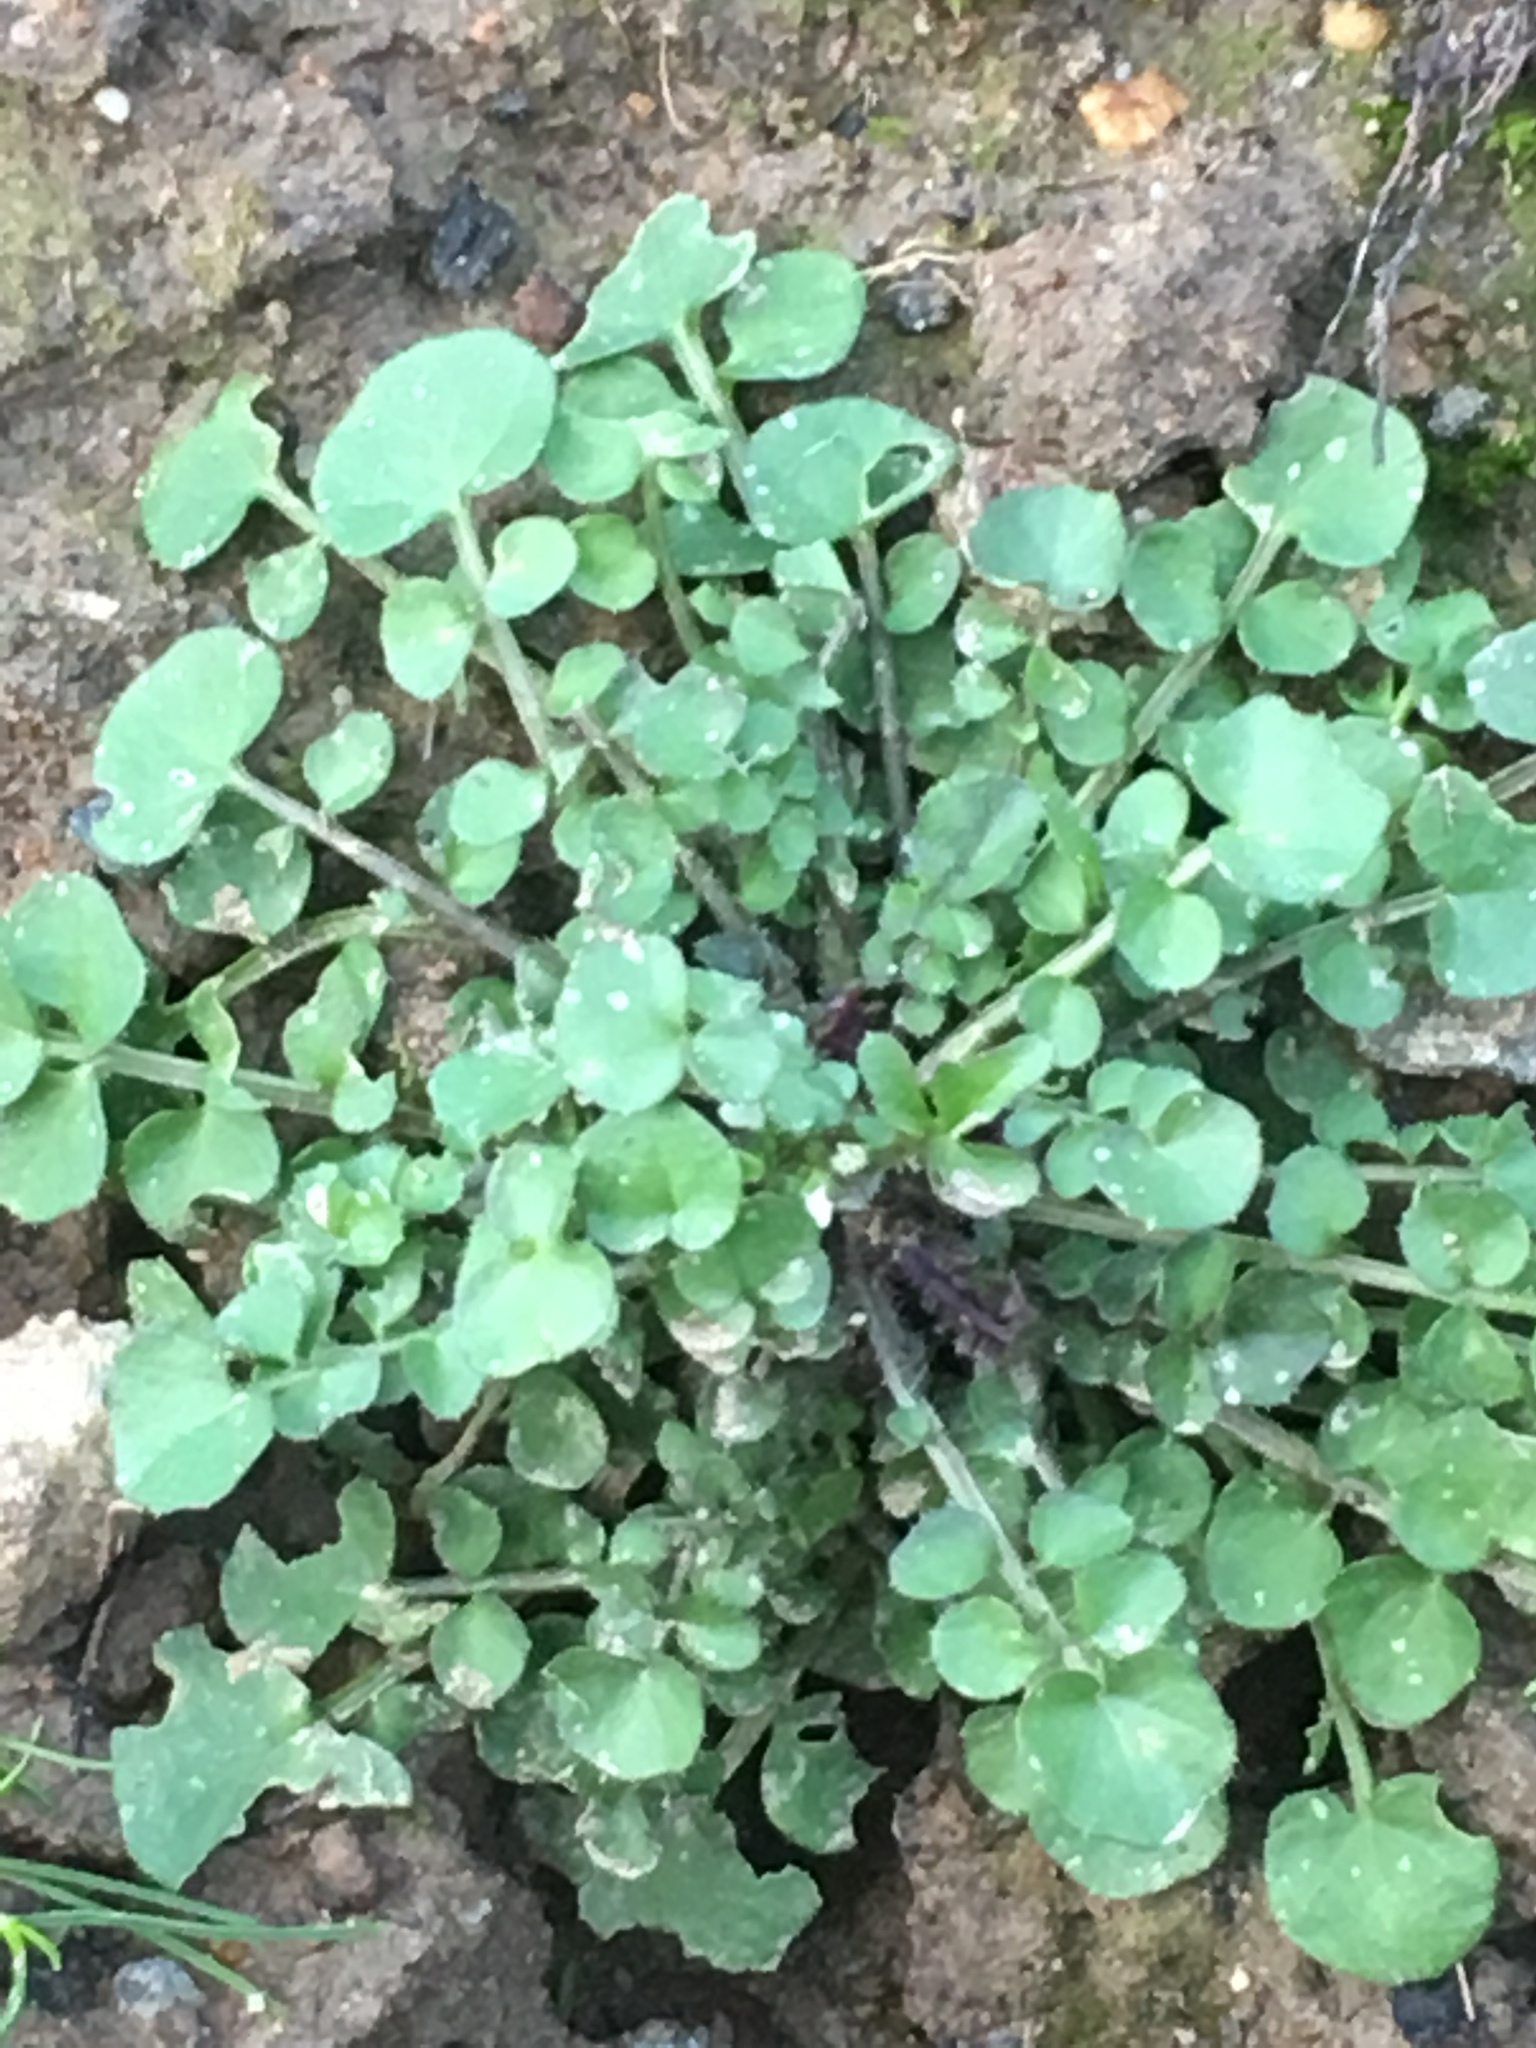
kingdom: Plantae
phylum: Tracheophyta
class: Magnoliopsida
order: Brassicales
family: Brassicaceae
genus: Cardamine
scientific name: Cardamine hirsuta
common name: Hairy bittercress
